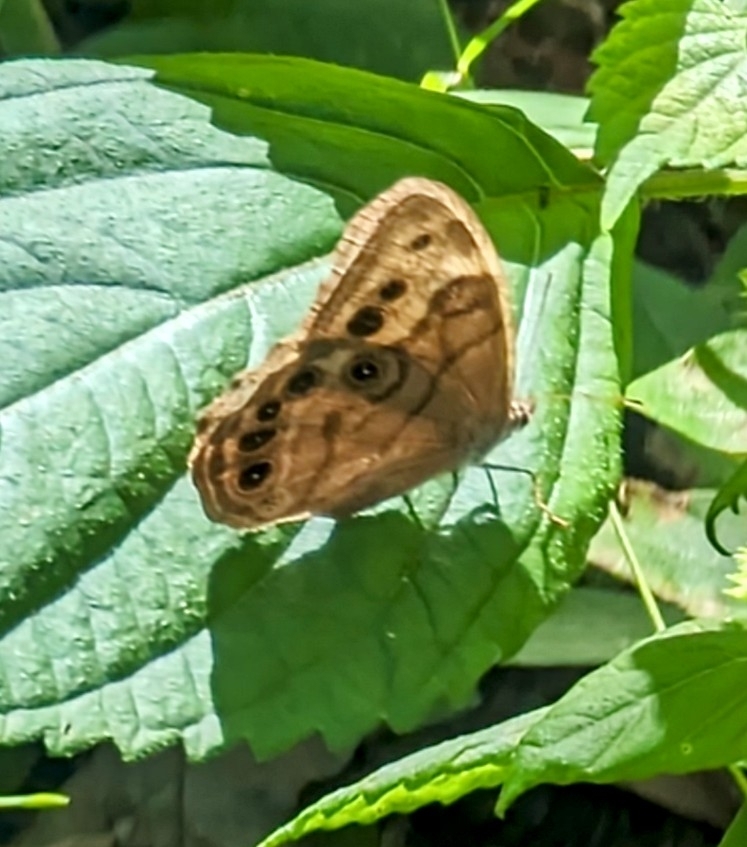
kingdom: Animalia
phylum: Arthropoda
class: Insecta
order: Lepidoptera
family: Nymphalidae
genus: Lethe
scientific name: Lethe anthedon
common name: Northern pearly-eye
